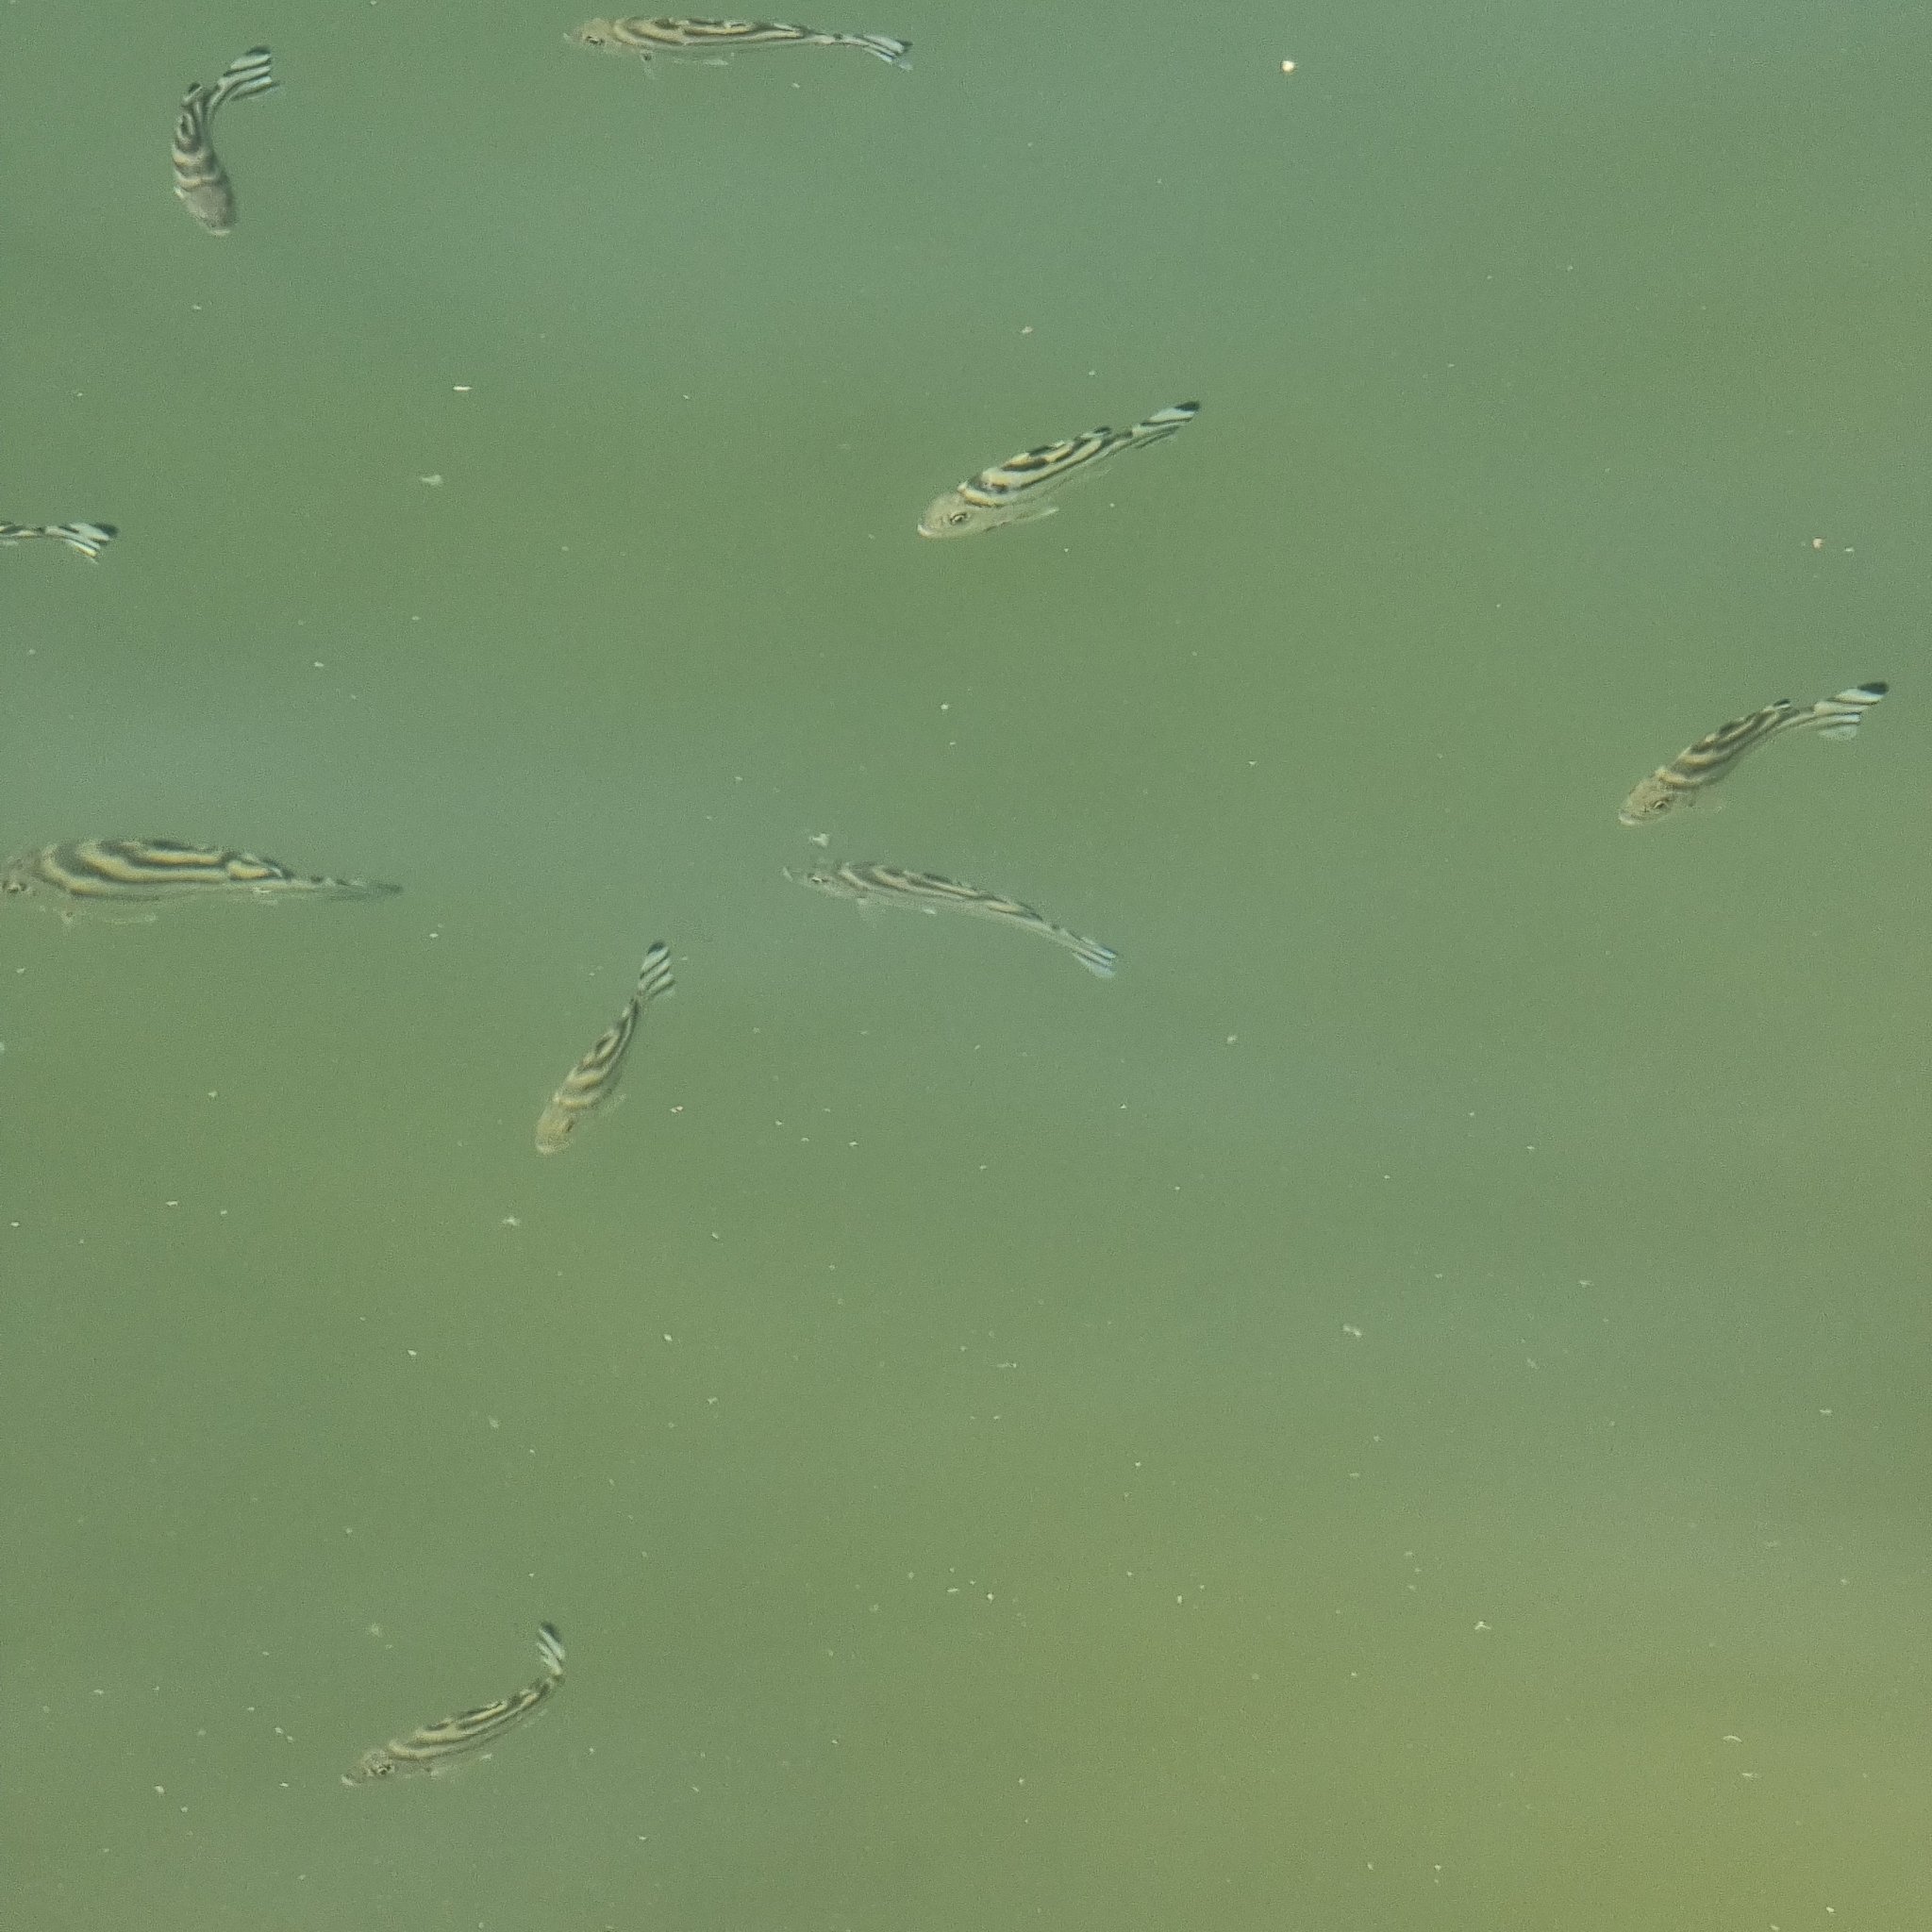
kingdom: Animalia
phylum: Chordata
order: Perciformes
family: Terapontidae
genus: Terapon
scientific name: Terapon jarbua
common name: Jarbua terapon
